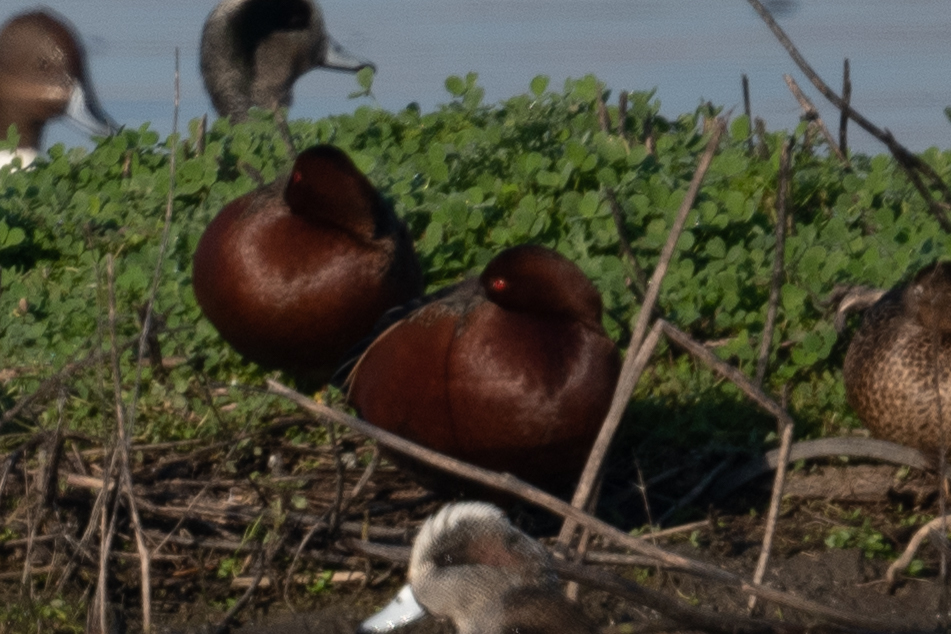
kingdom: Animalia
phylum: Chordata
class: Aves
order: Anseriformes
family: Anatidae
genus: Spatula
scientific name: Spatula cyanoptera
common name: Cinnamon teal
